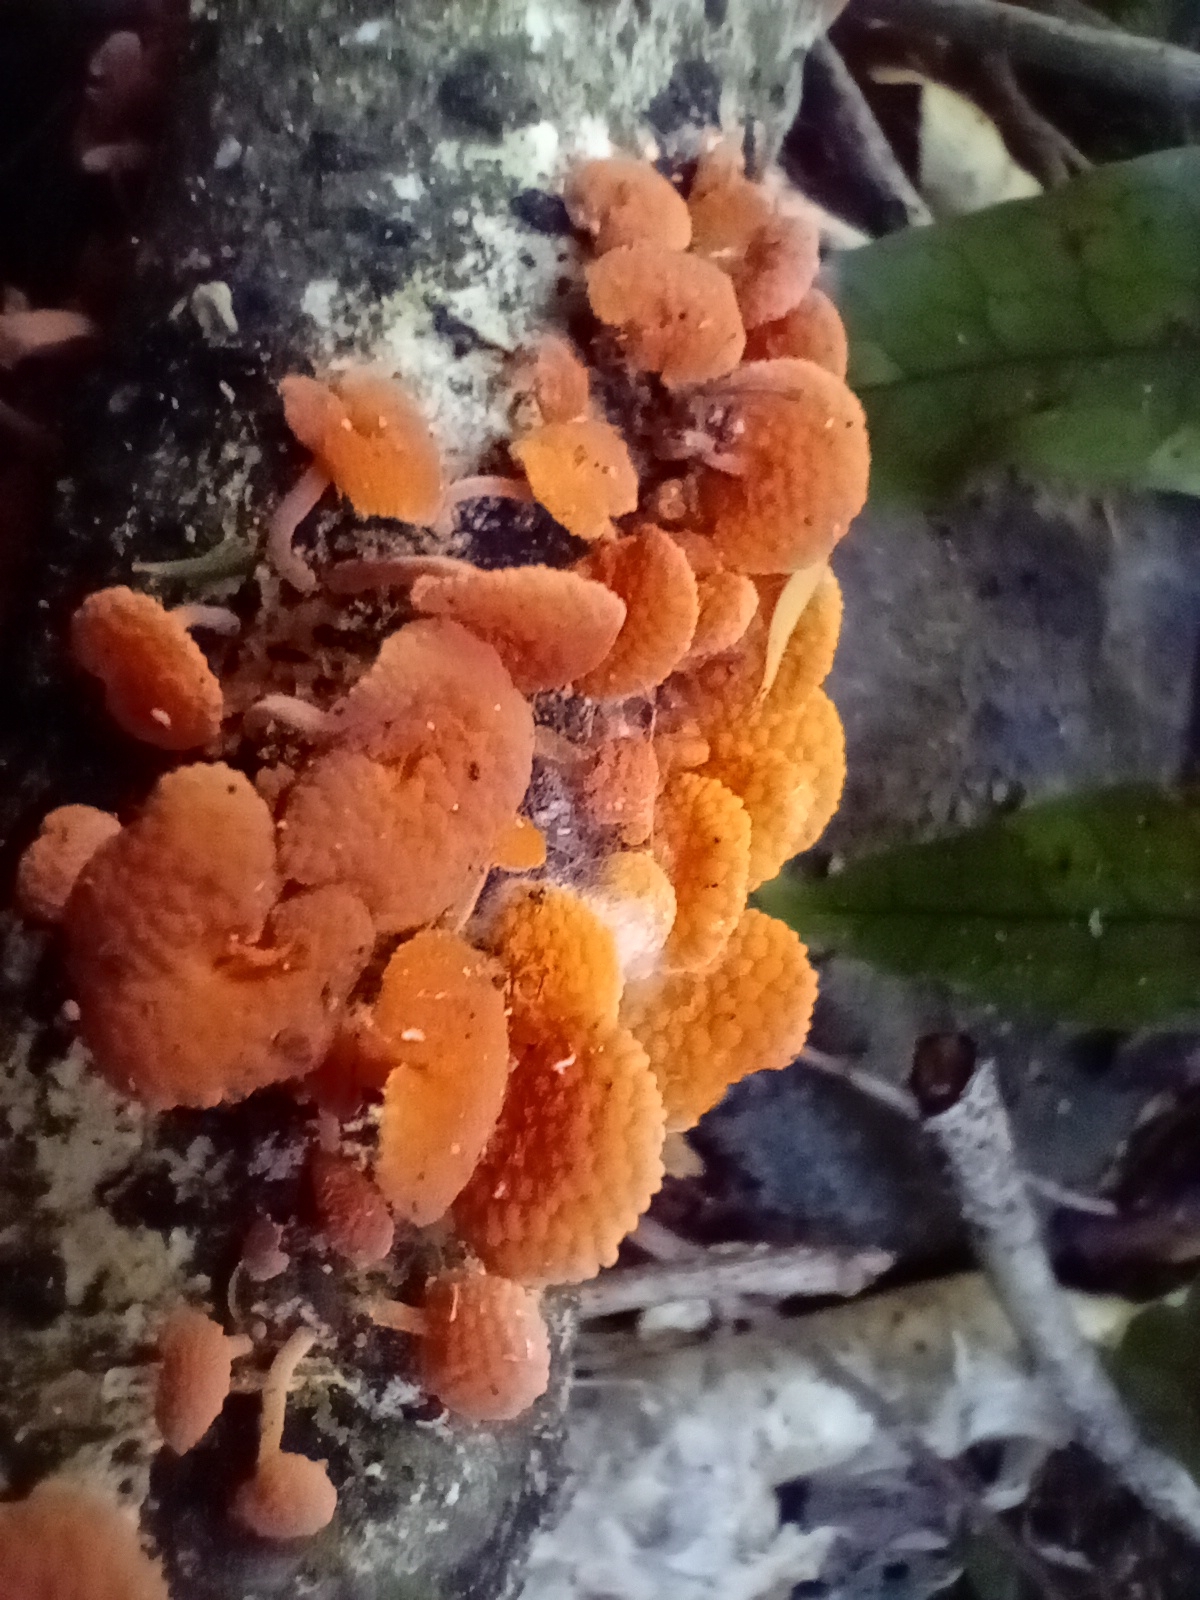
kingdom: Fungi
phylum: Basidiomycota
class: Agaricomycetes
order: Agaricales
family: Mycenaceae
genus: Favolaschia
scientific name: Favolaschia claudopus
